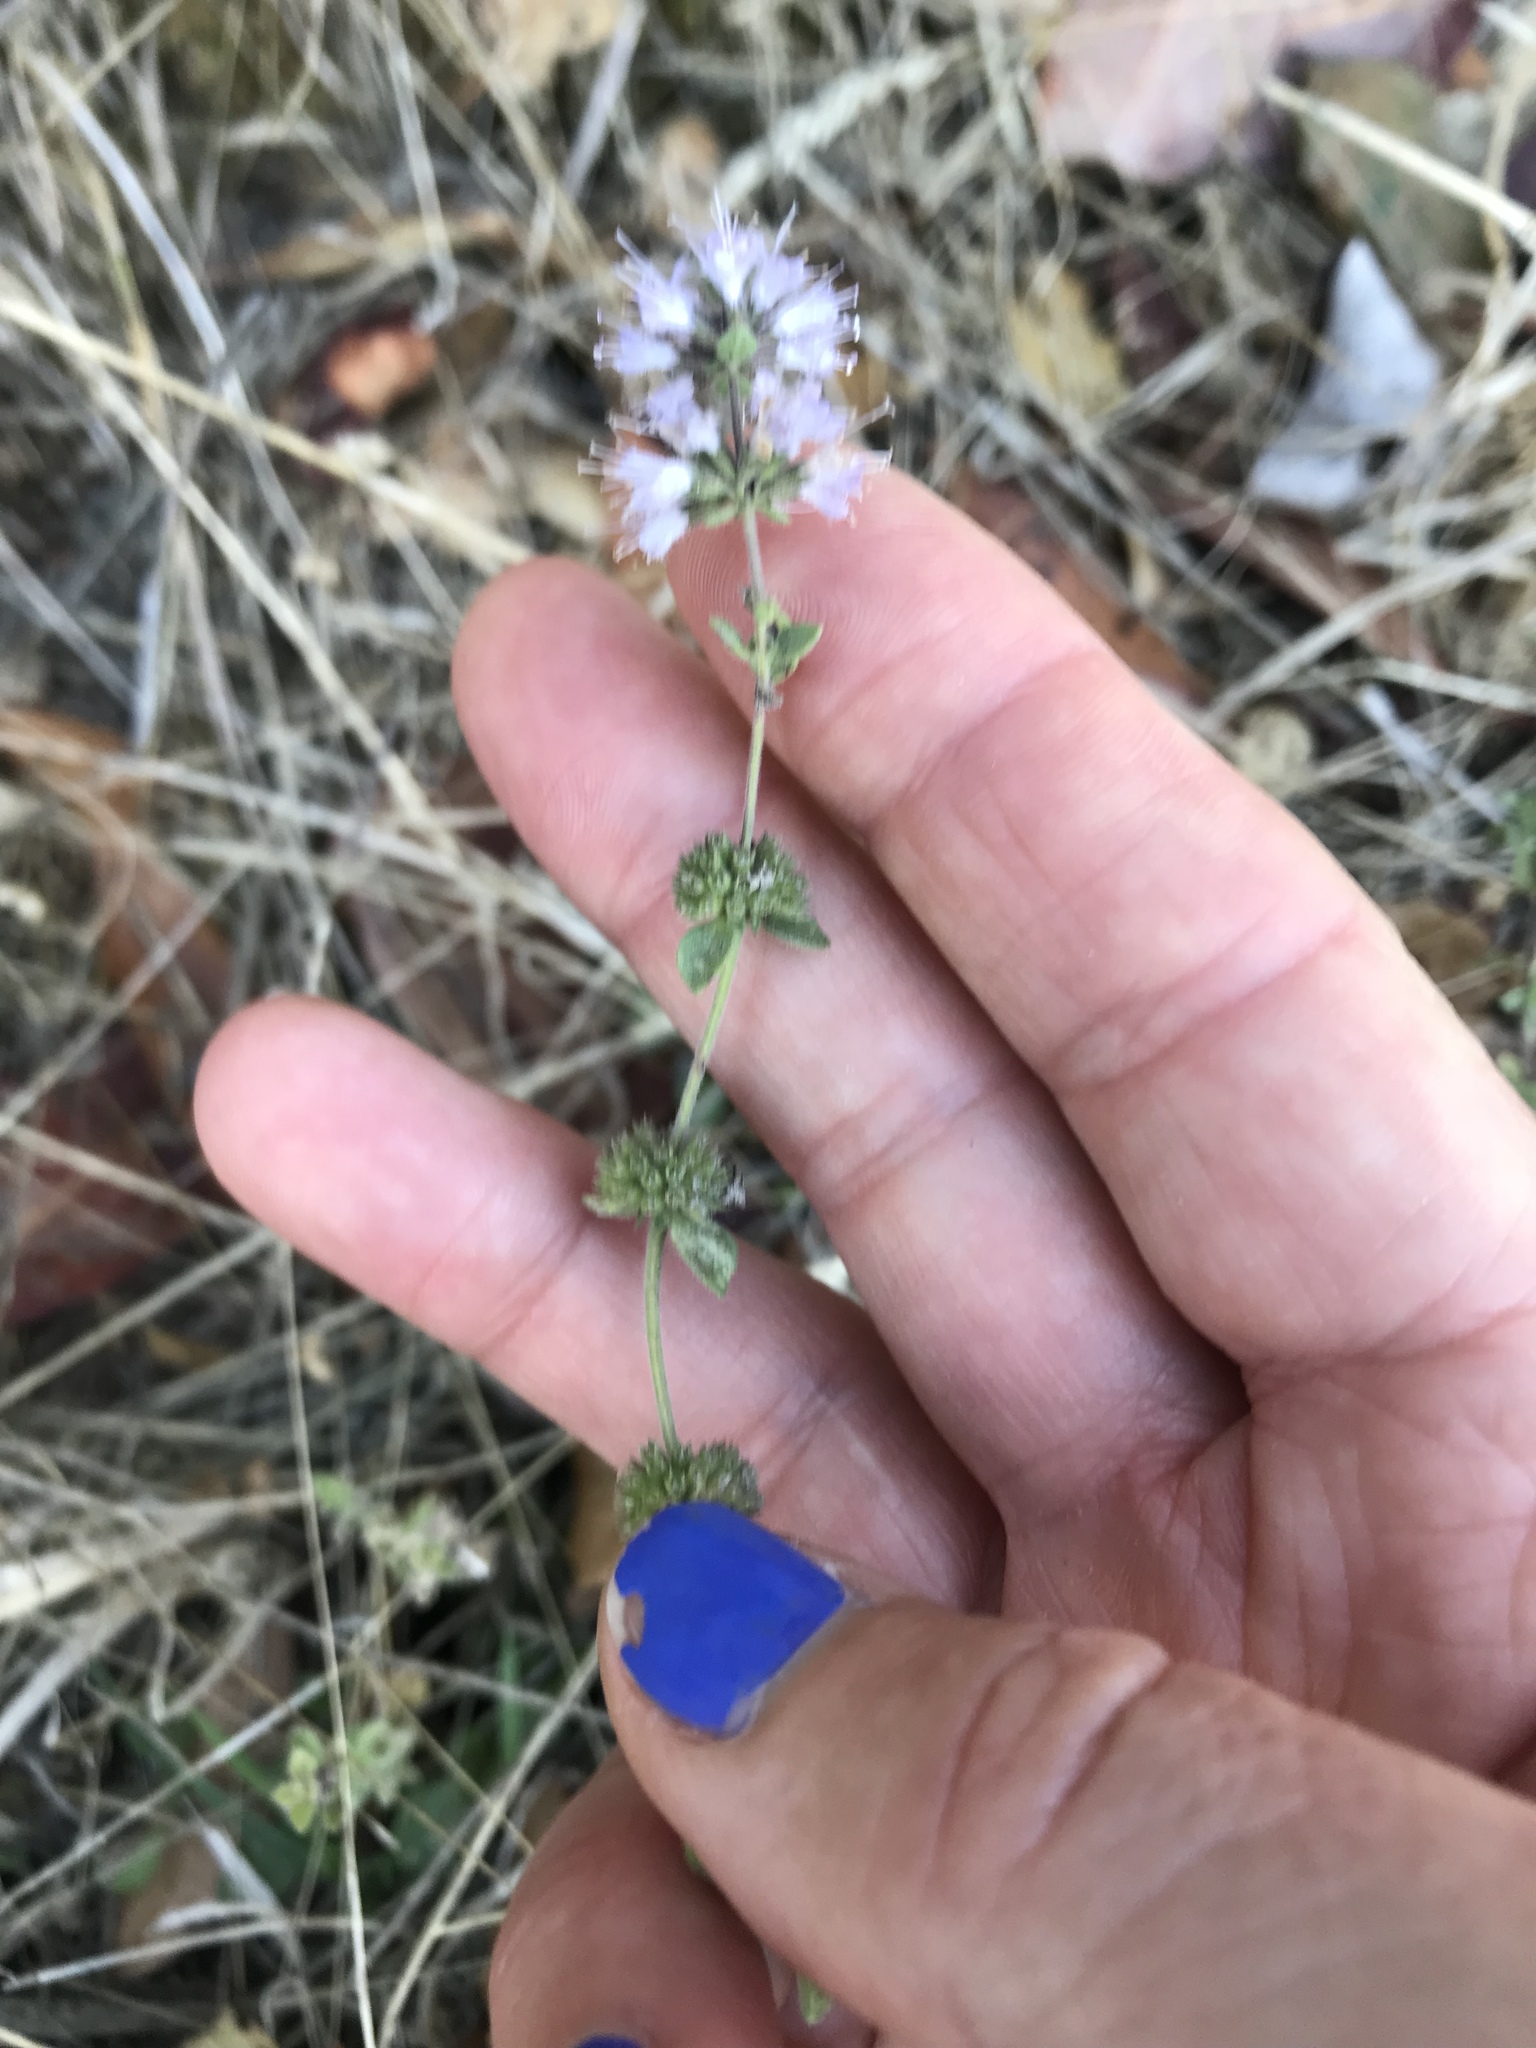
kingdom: Plantae
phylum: Tracheophyta
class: Magnoliopsida
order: Lamiales
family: Lamiaceae
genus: Mentha
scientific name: Mentha pulegium
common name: Pennyroyal
